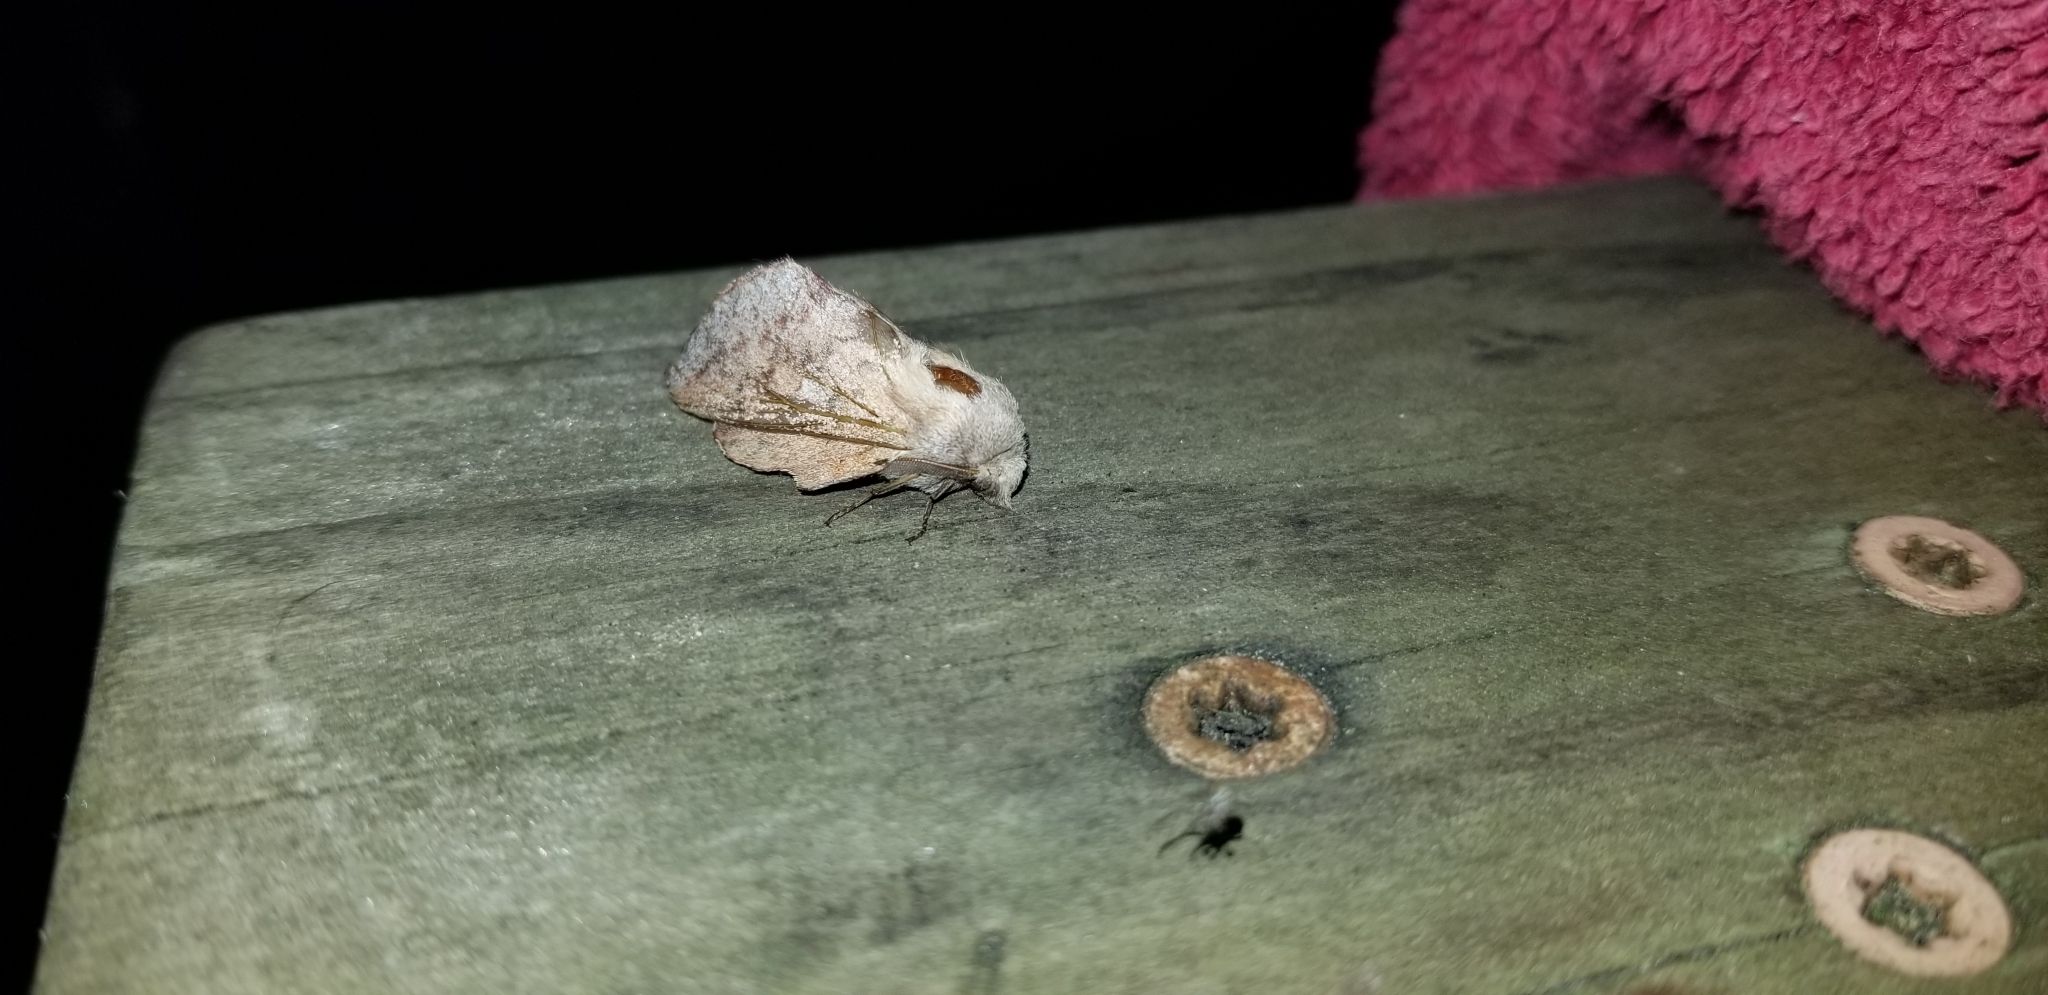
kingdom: Animalia
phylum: Arthropoda
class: Insecta
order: Lepidoptera
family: Lasiocampidae
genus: Phyllodesma
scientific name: Phyllodesma americana
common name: American lappet moth
